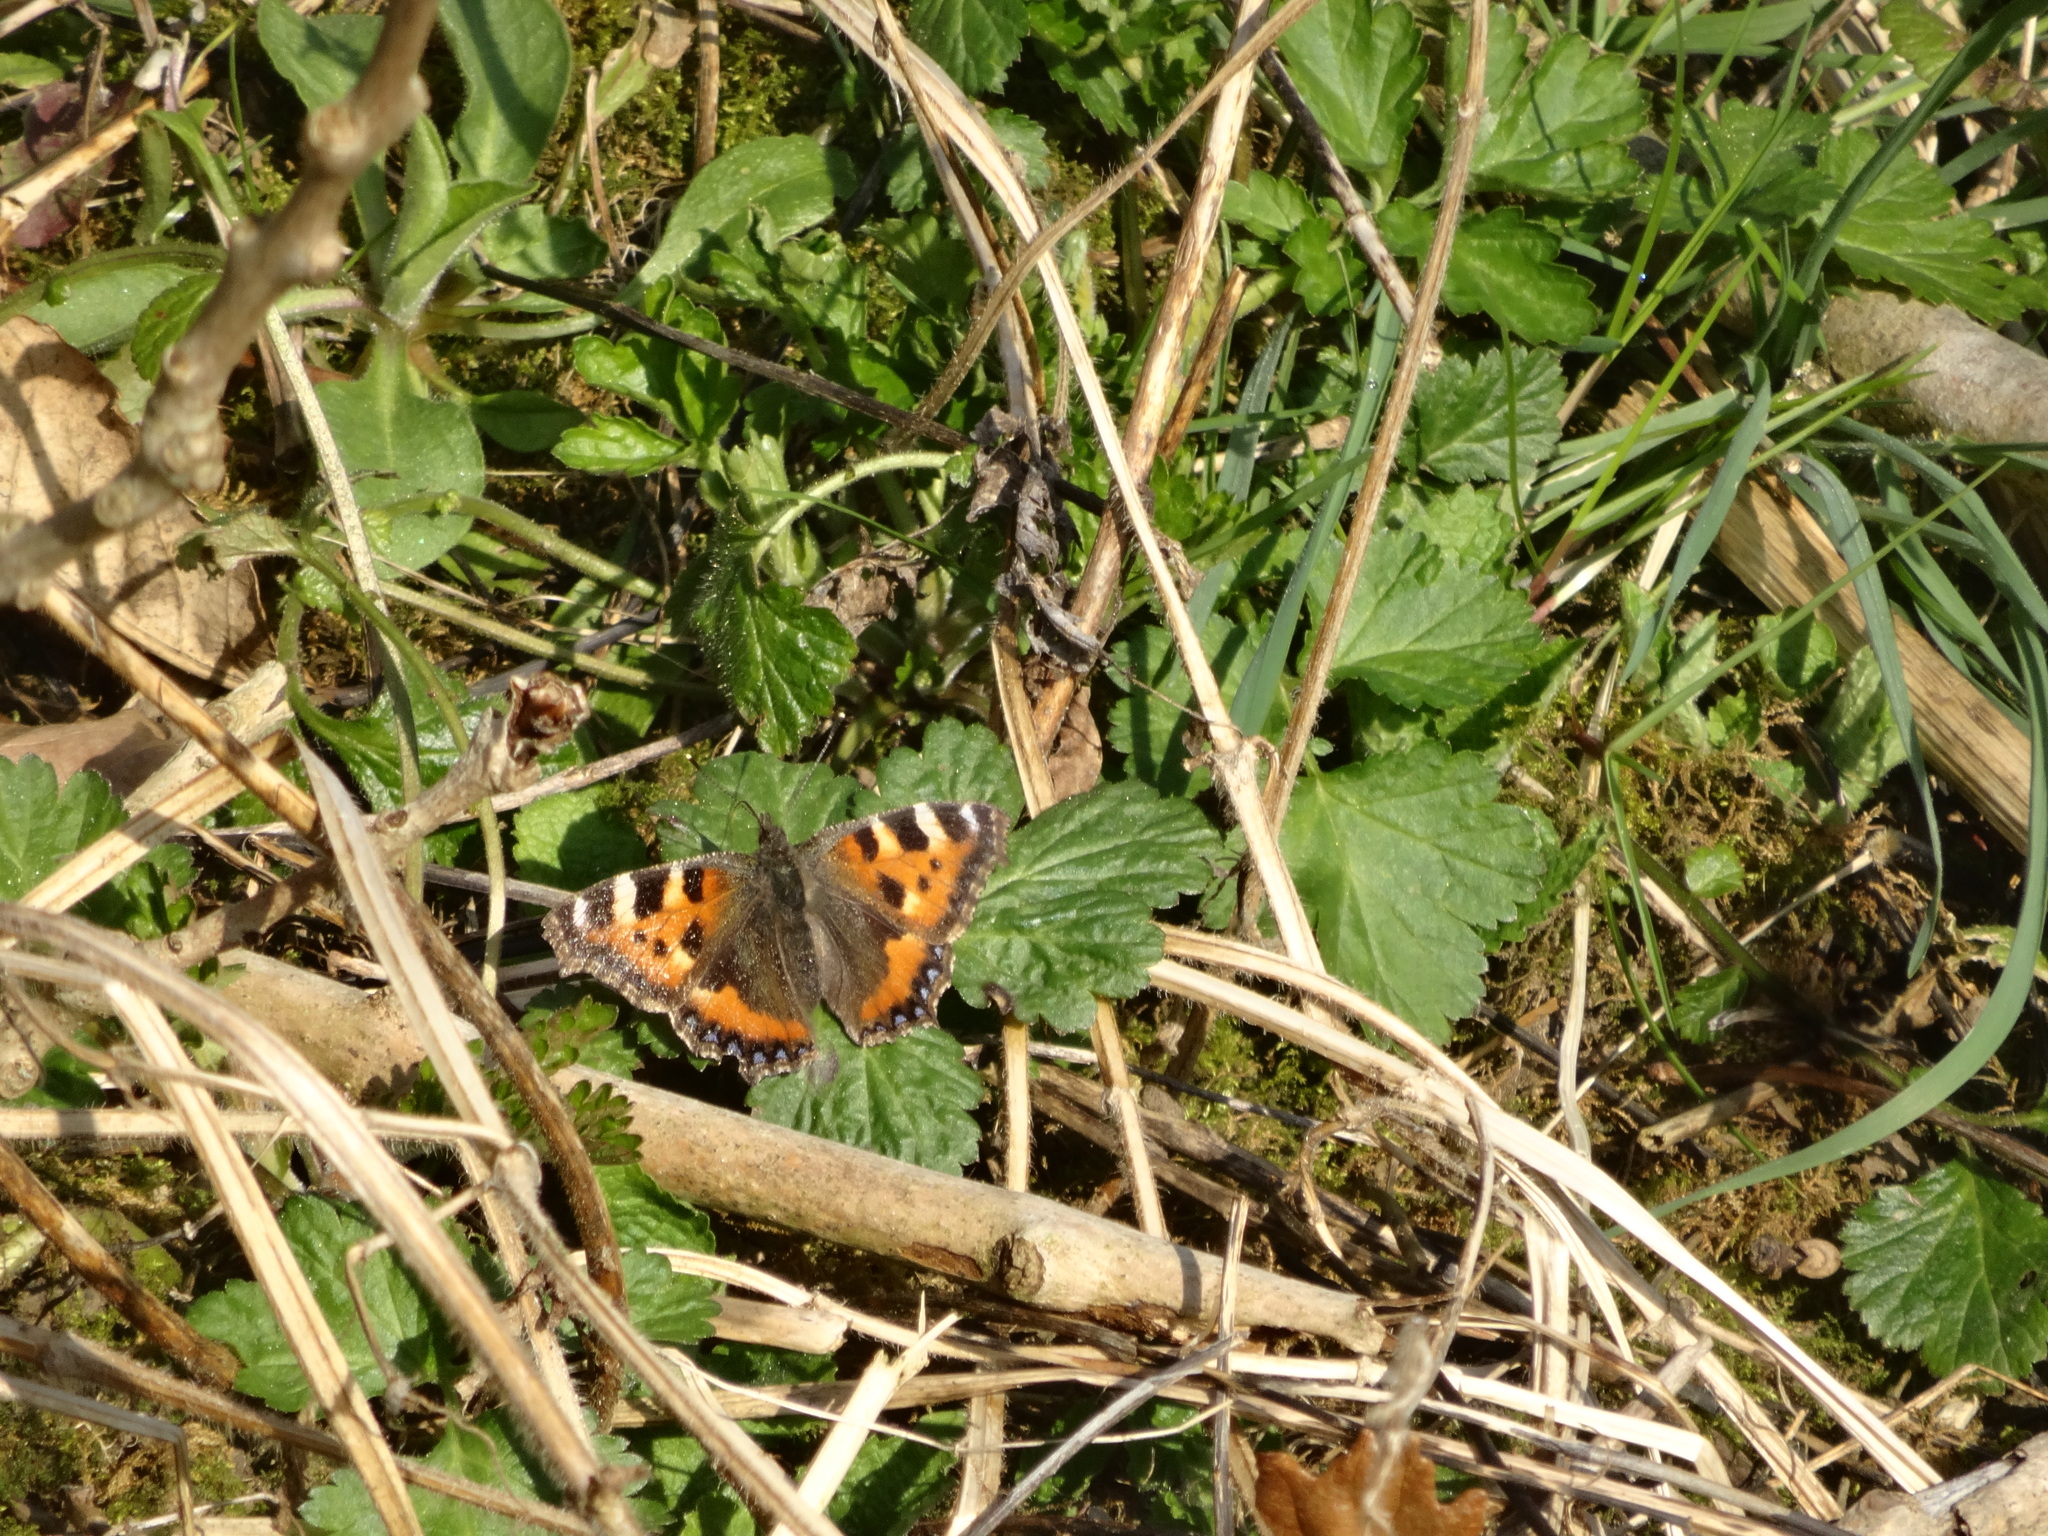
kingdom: Animalia
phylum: Arthropoda
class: Insecta
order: Lepidoptera
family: Nymphalidae
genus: Aglais
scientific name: Aglais urticae
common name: Small tortoiseshell
